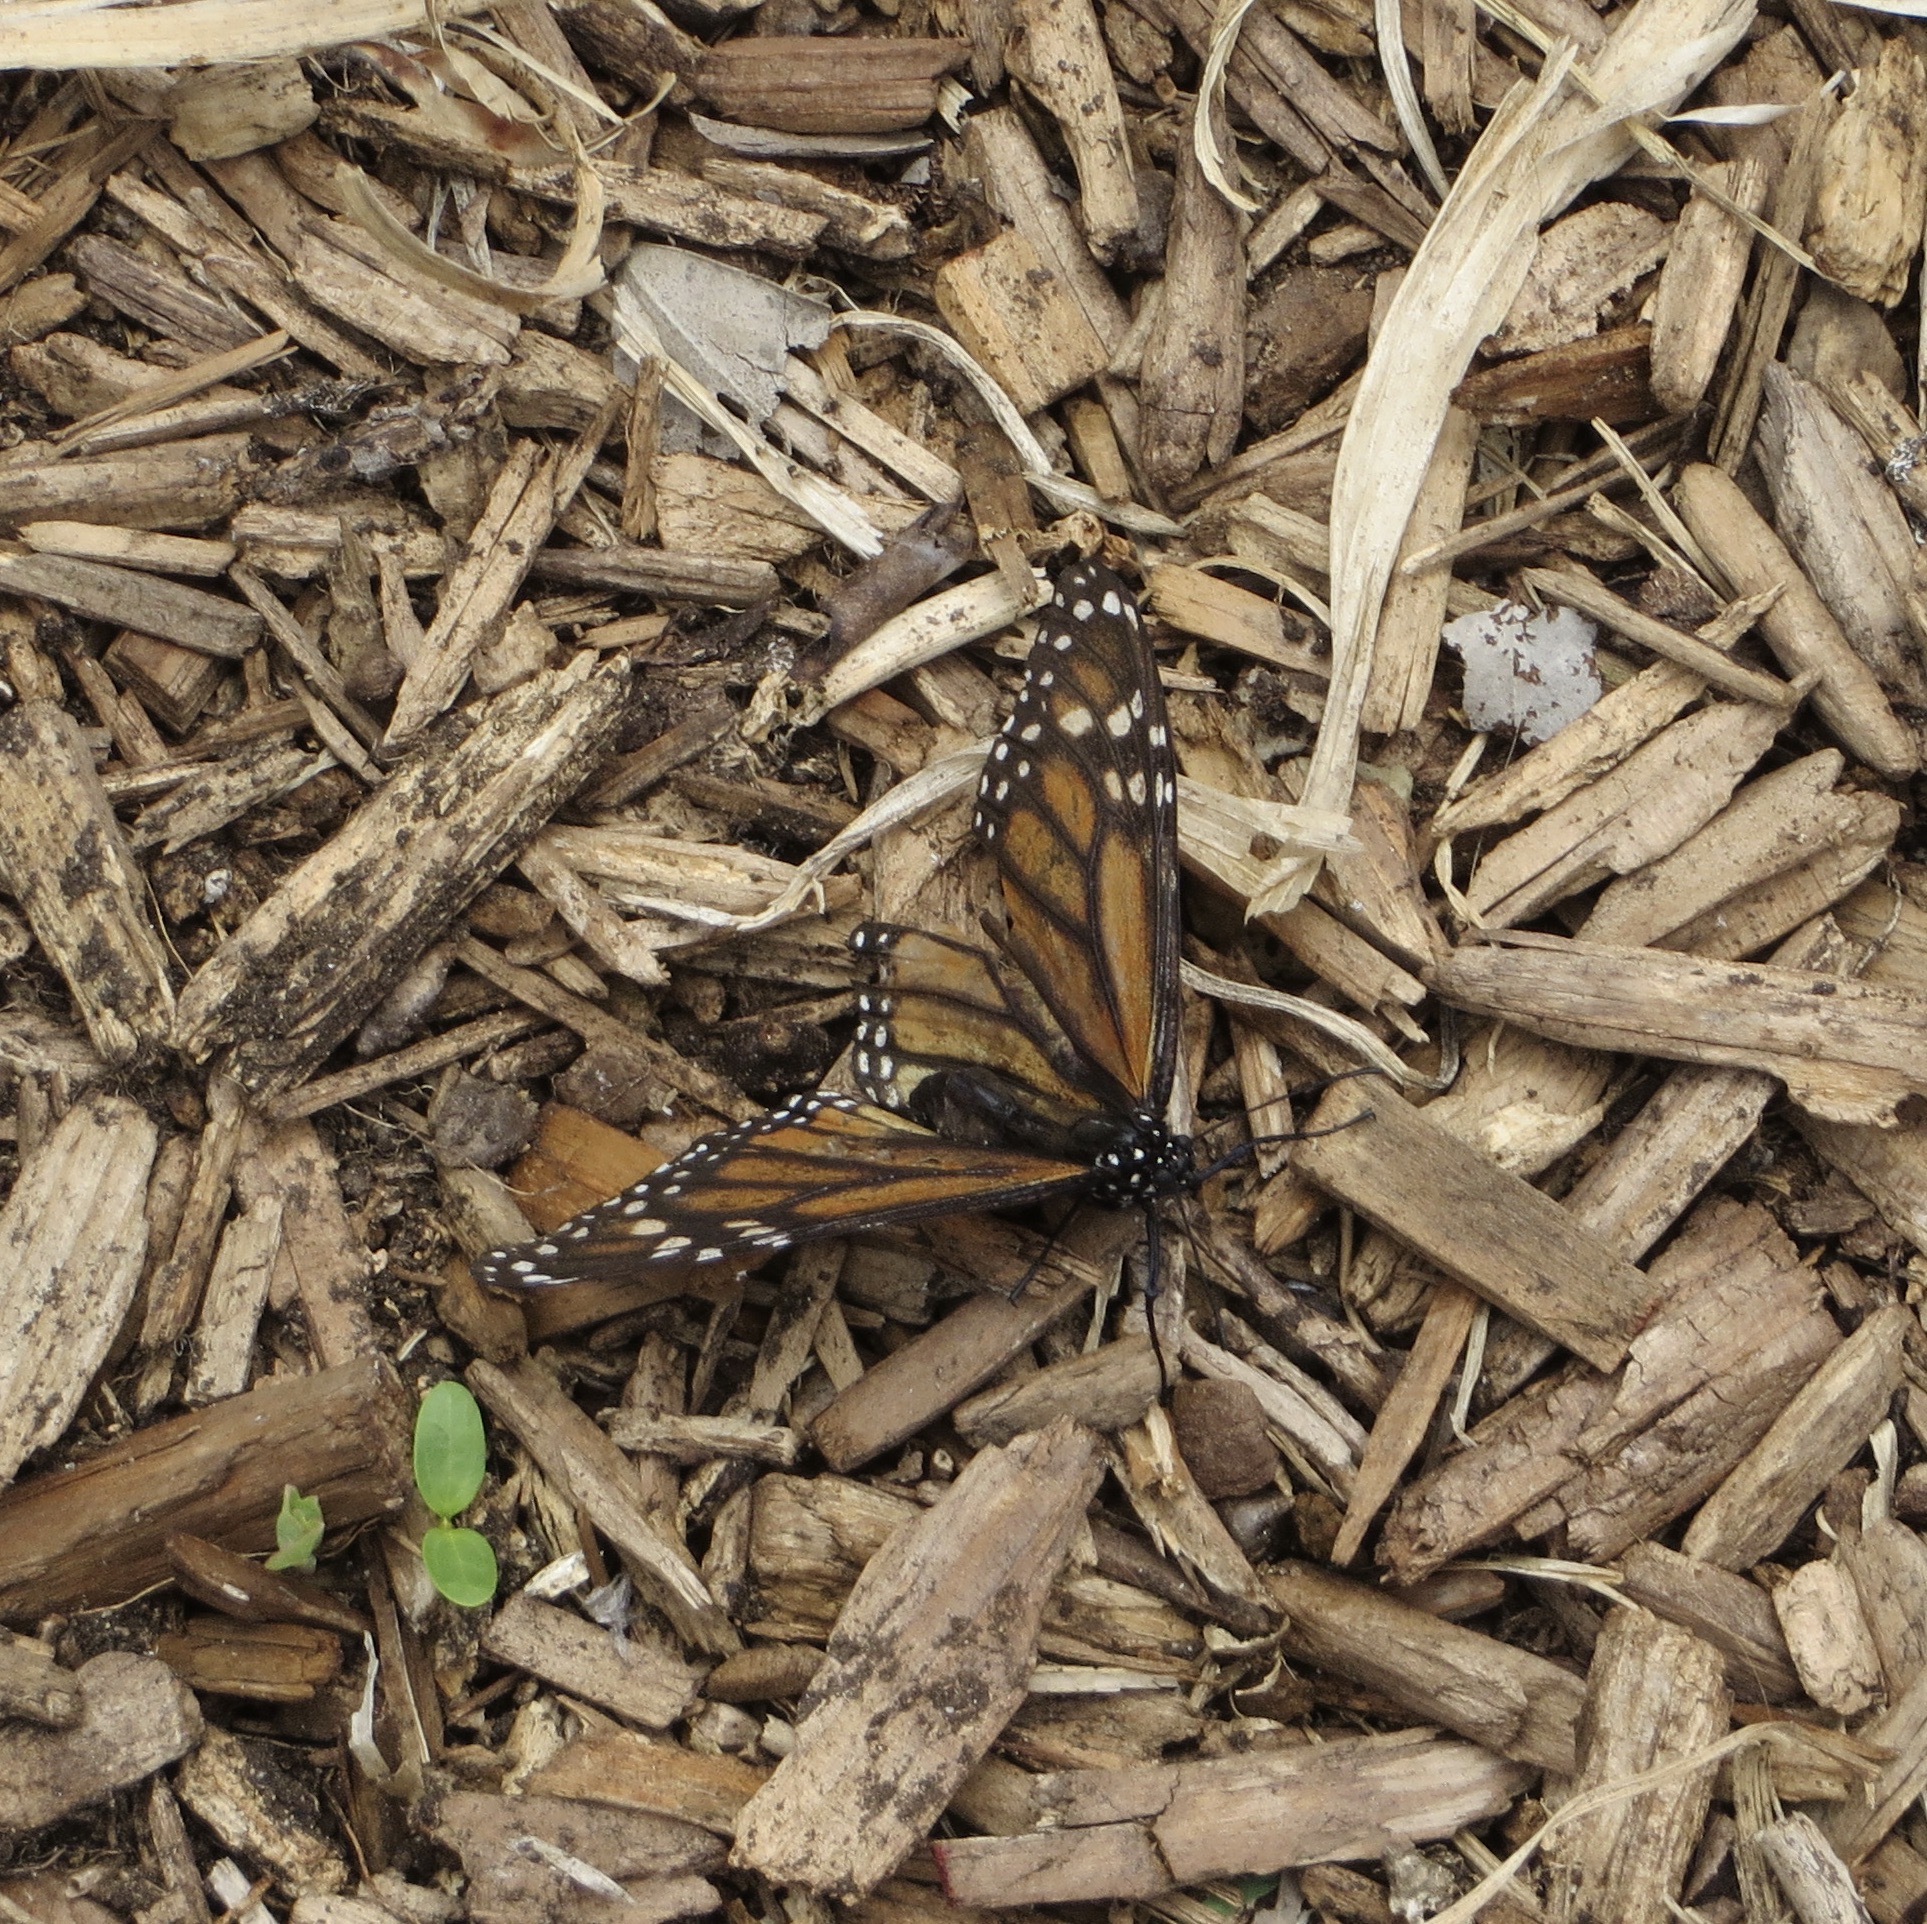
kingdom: Animalia
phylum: Arthropoda
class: Insecta
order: Lepidoptera
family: Nymphalidae
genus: Danaus
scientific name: Danaus plexippus
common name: Monarch
